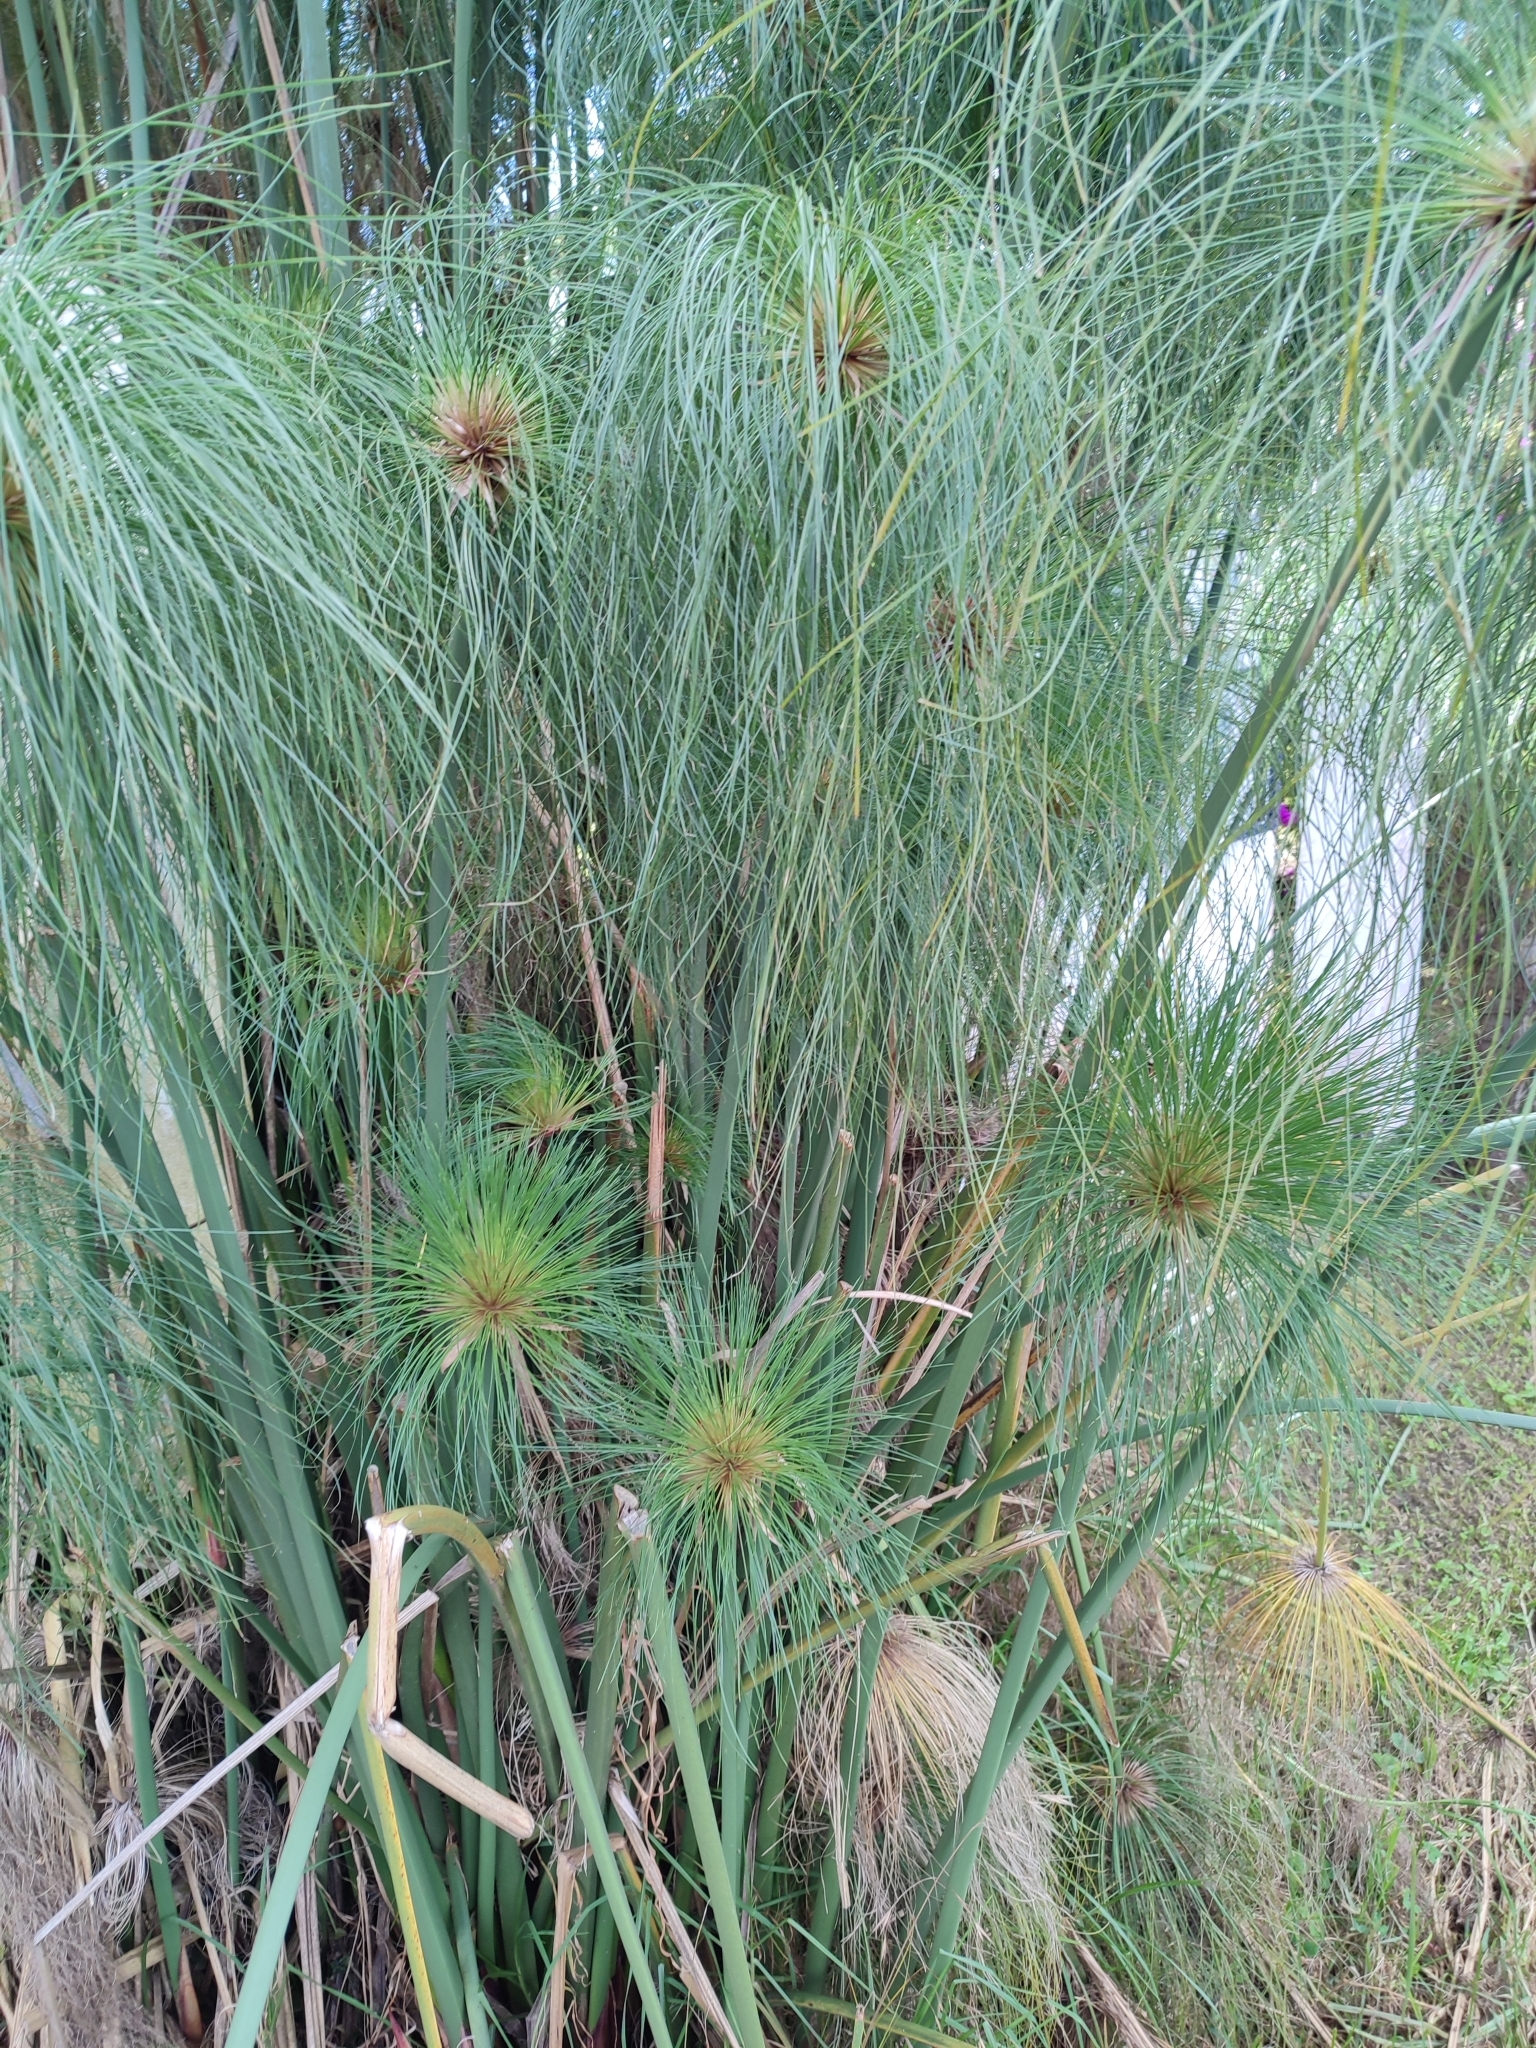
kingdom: Plantae
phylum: Tracheophyta
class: Liliopsida
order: Poales
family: Cyperaceae
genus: Cyperus
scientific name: Cyperus papyrus
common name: Papyrus
